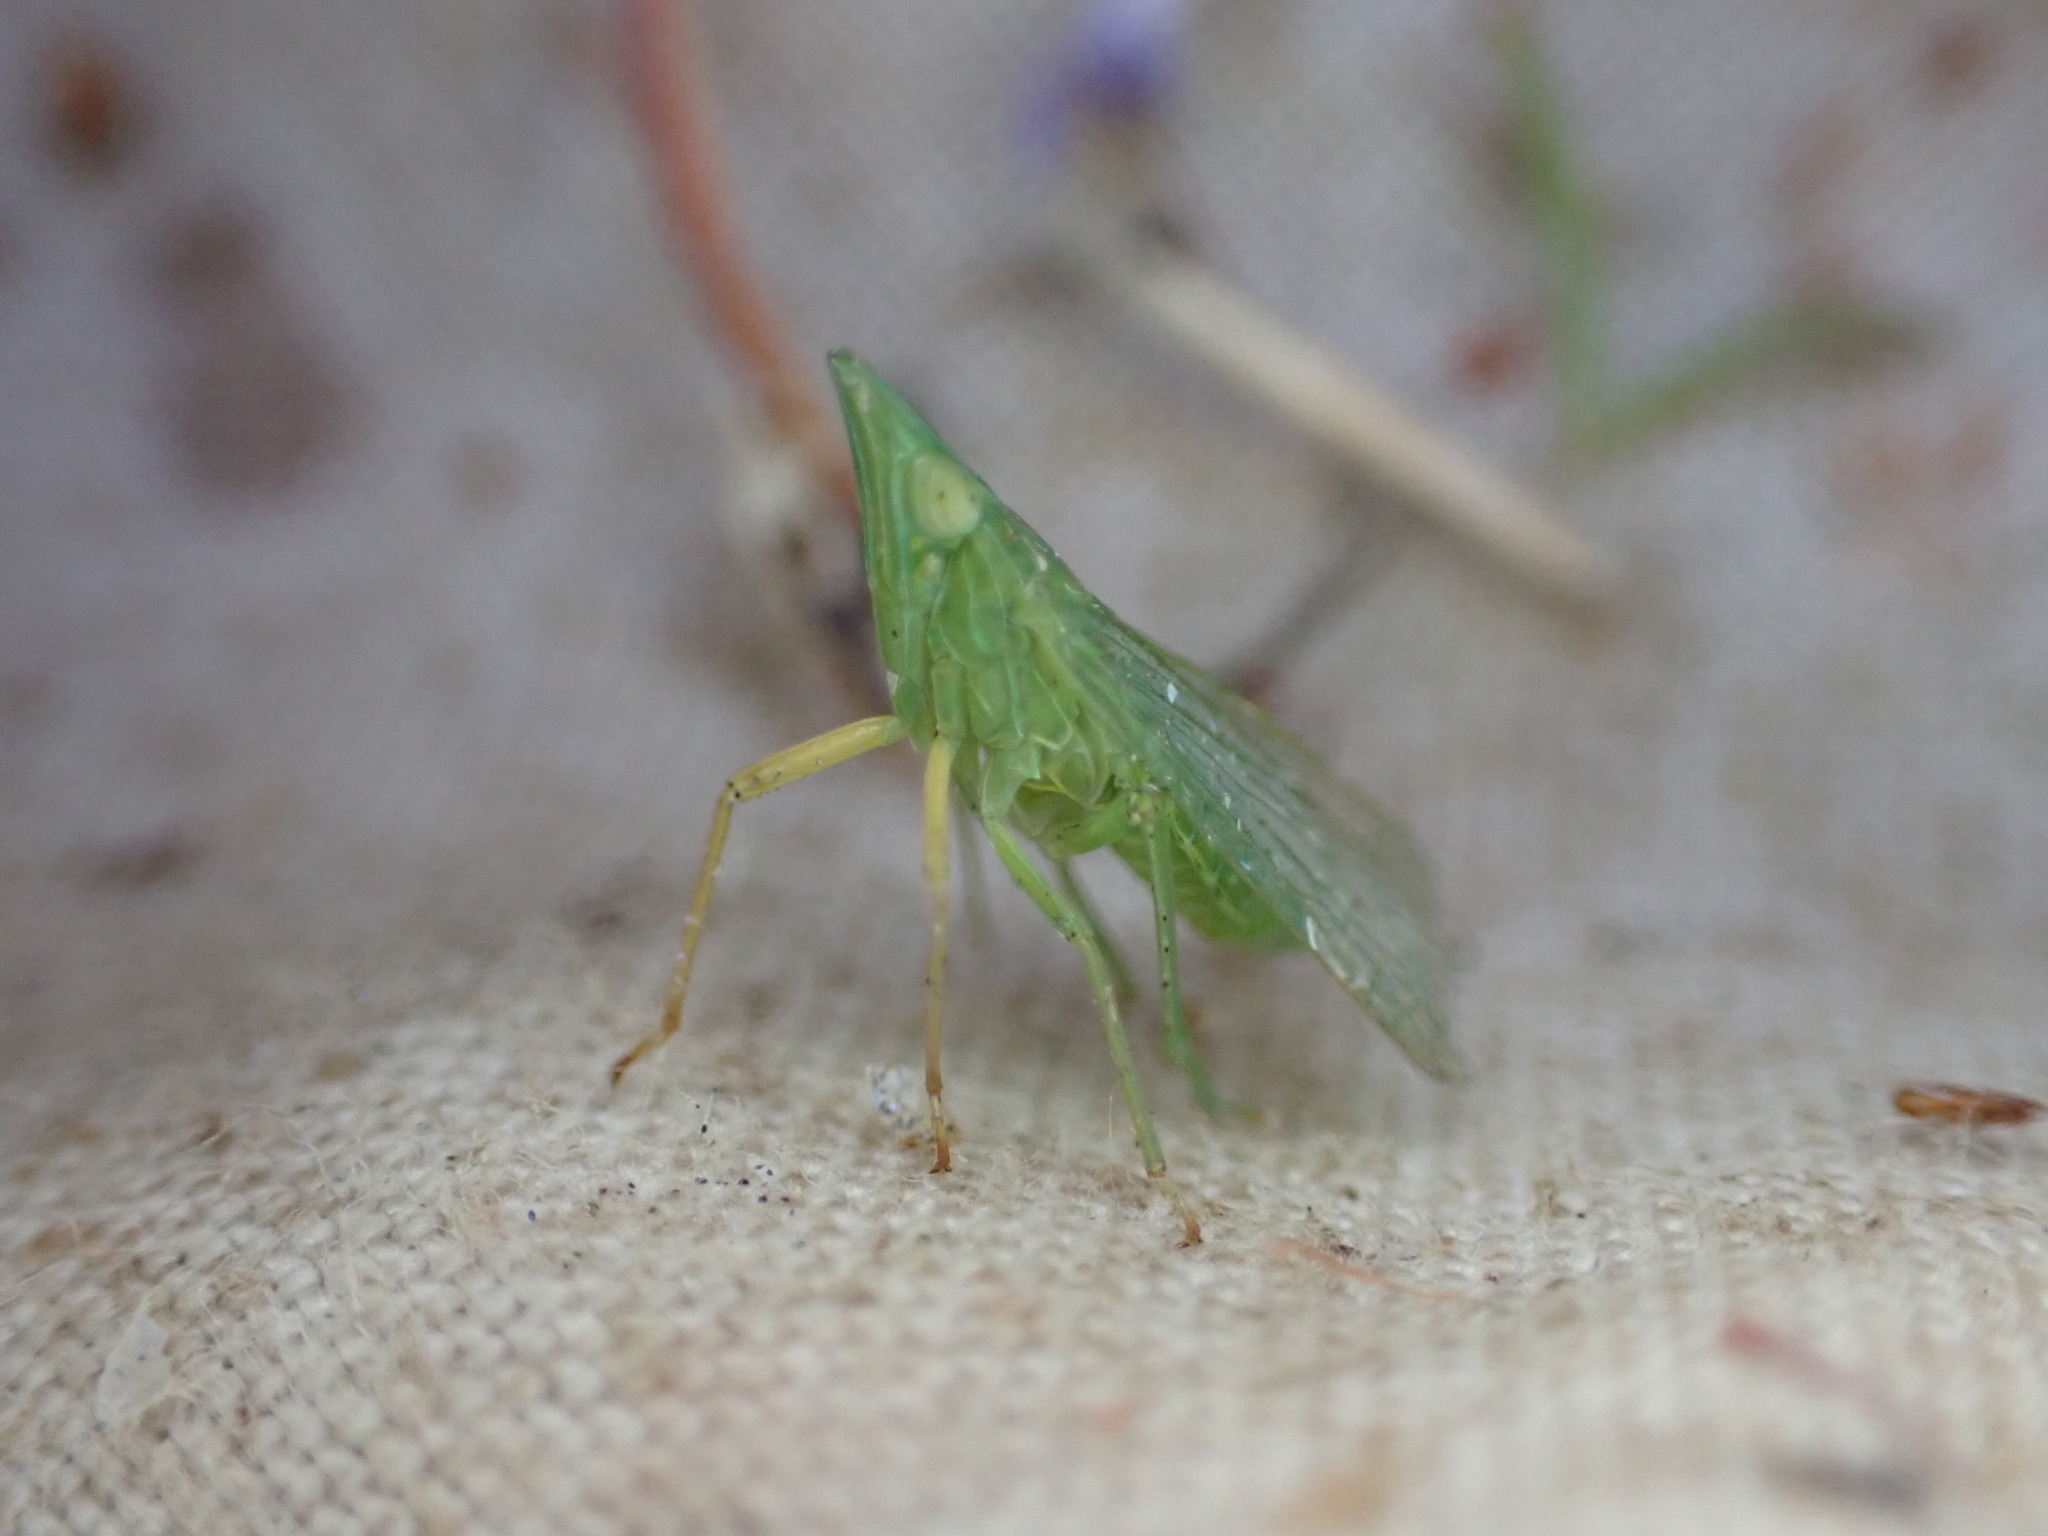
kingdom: Animalia
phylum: Arthropoda
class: Insecta
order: Hemiptera
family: Dictyopharidae
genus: Dictyophara
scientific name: Dictyophara multireticulata
